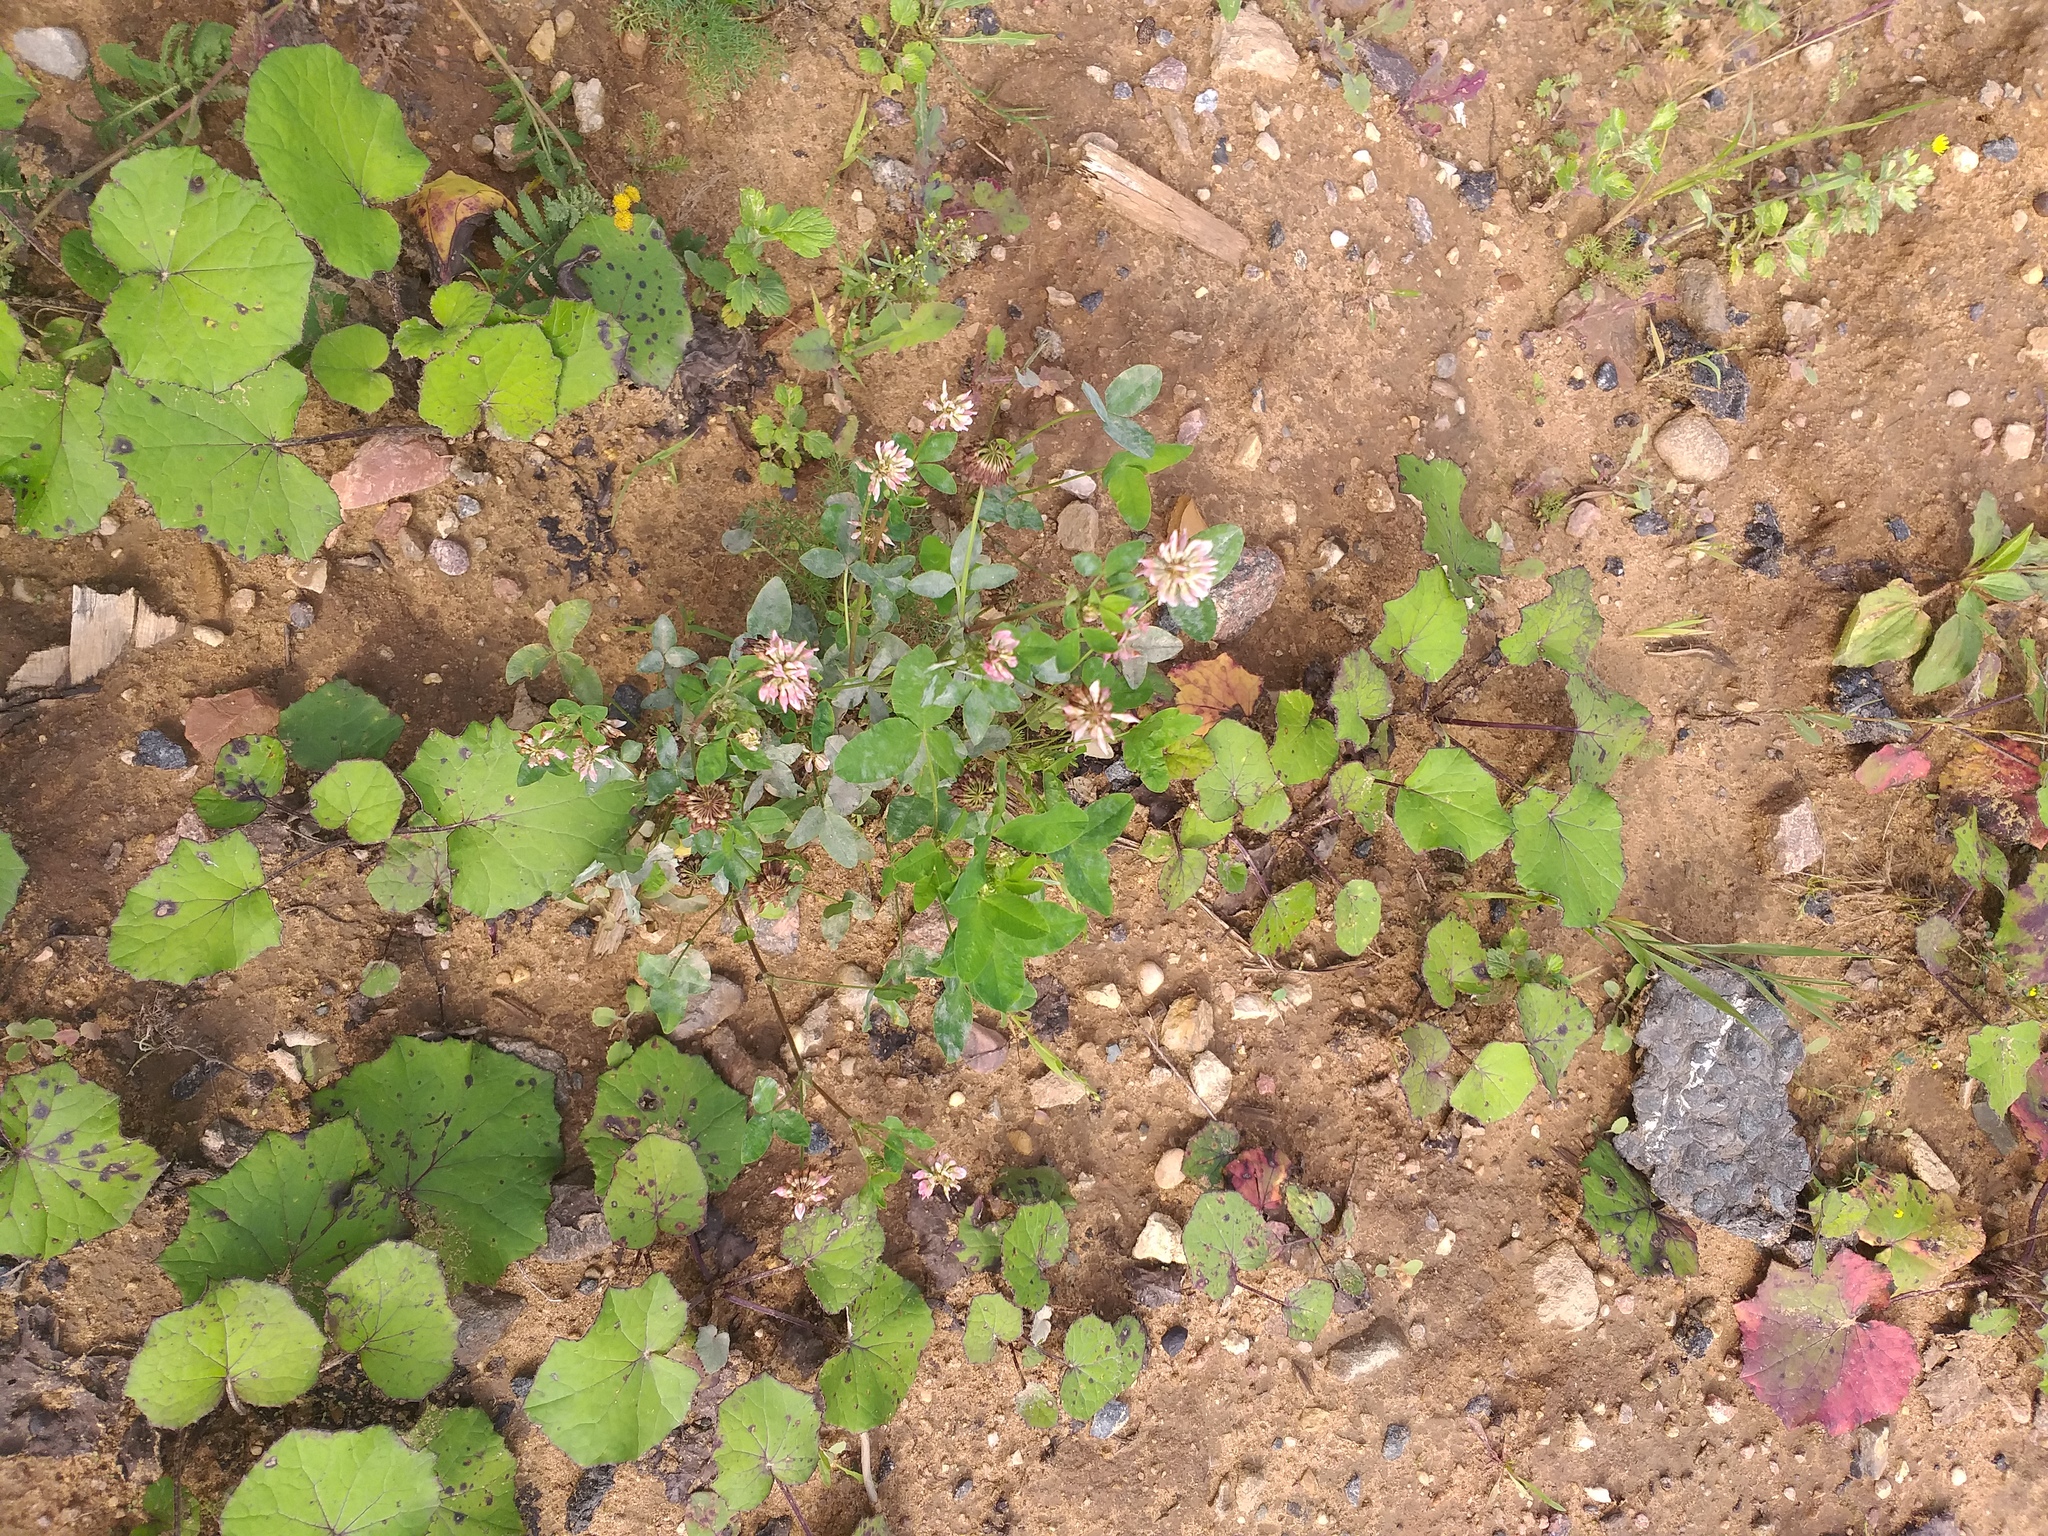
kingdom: Plantae
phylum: Tracheophyta
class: Magnoliopsida
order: Fabales
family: Fabaceae
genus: Trifolium
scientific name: Trifolium hybridum
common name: Alsike clover
